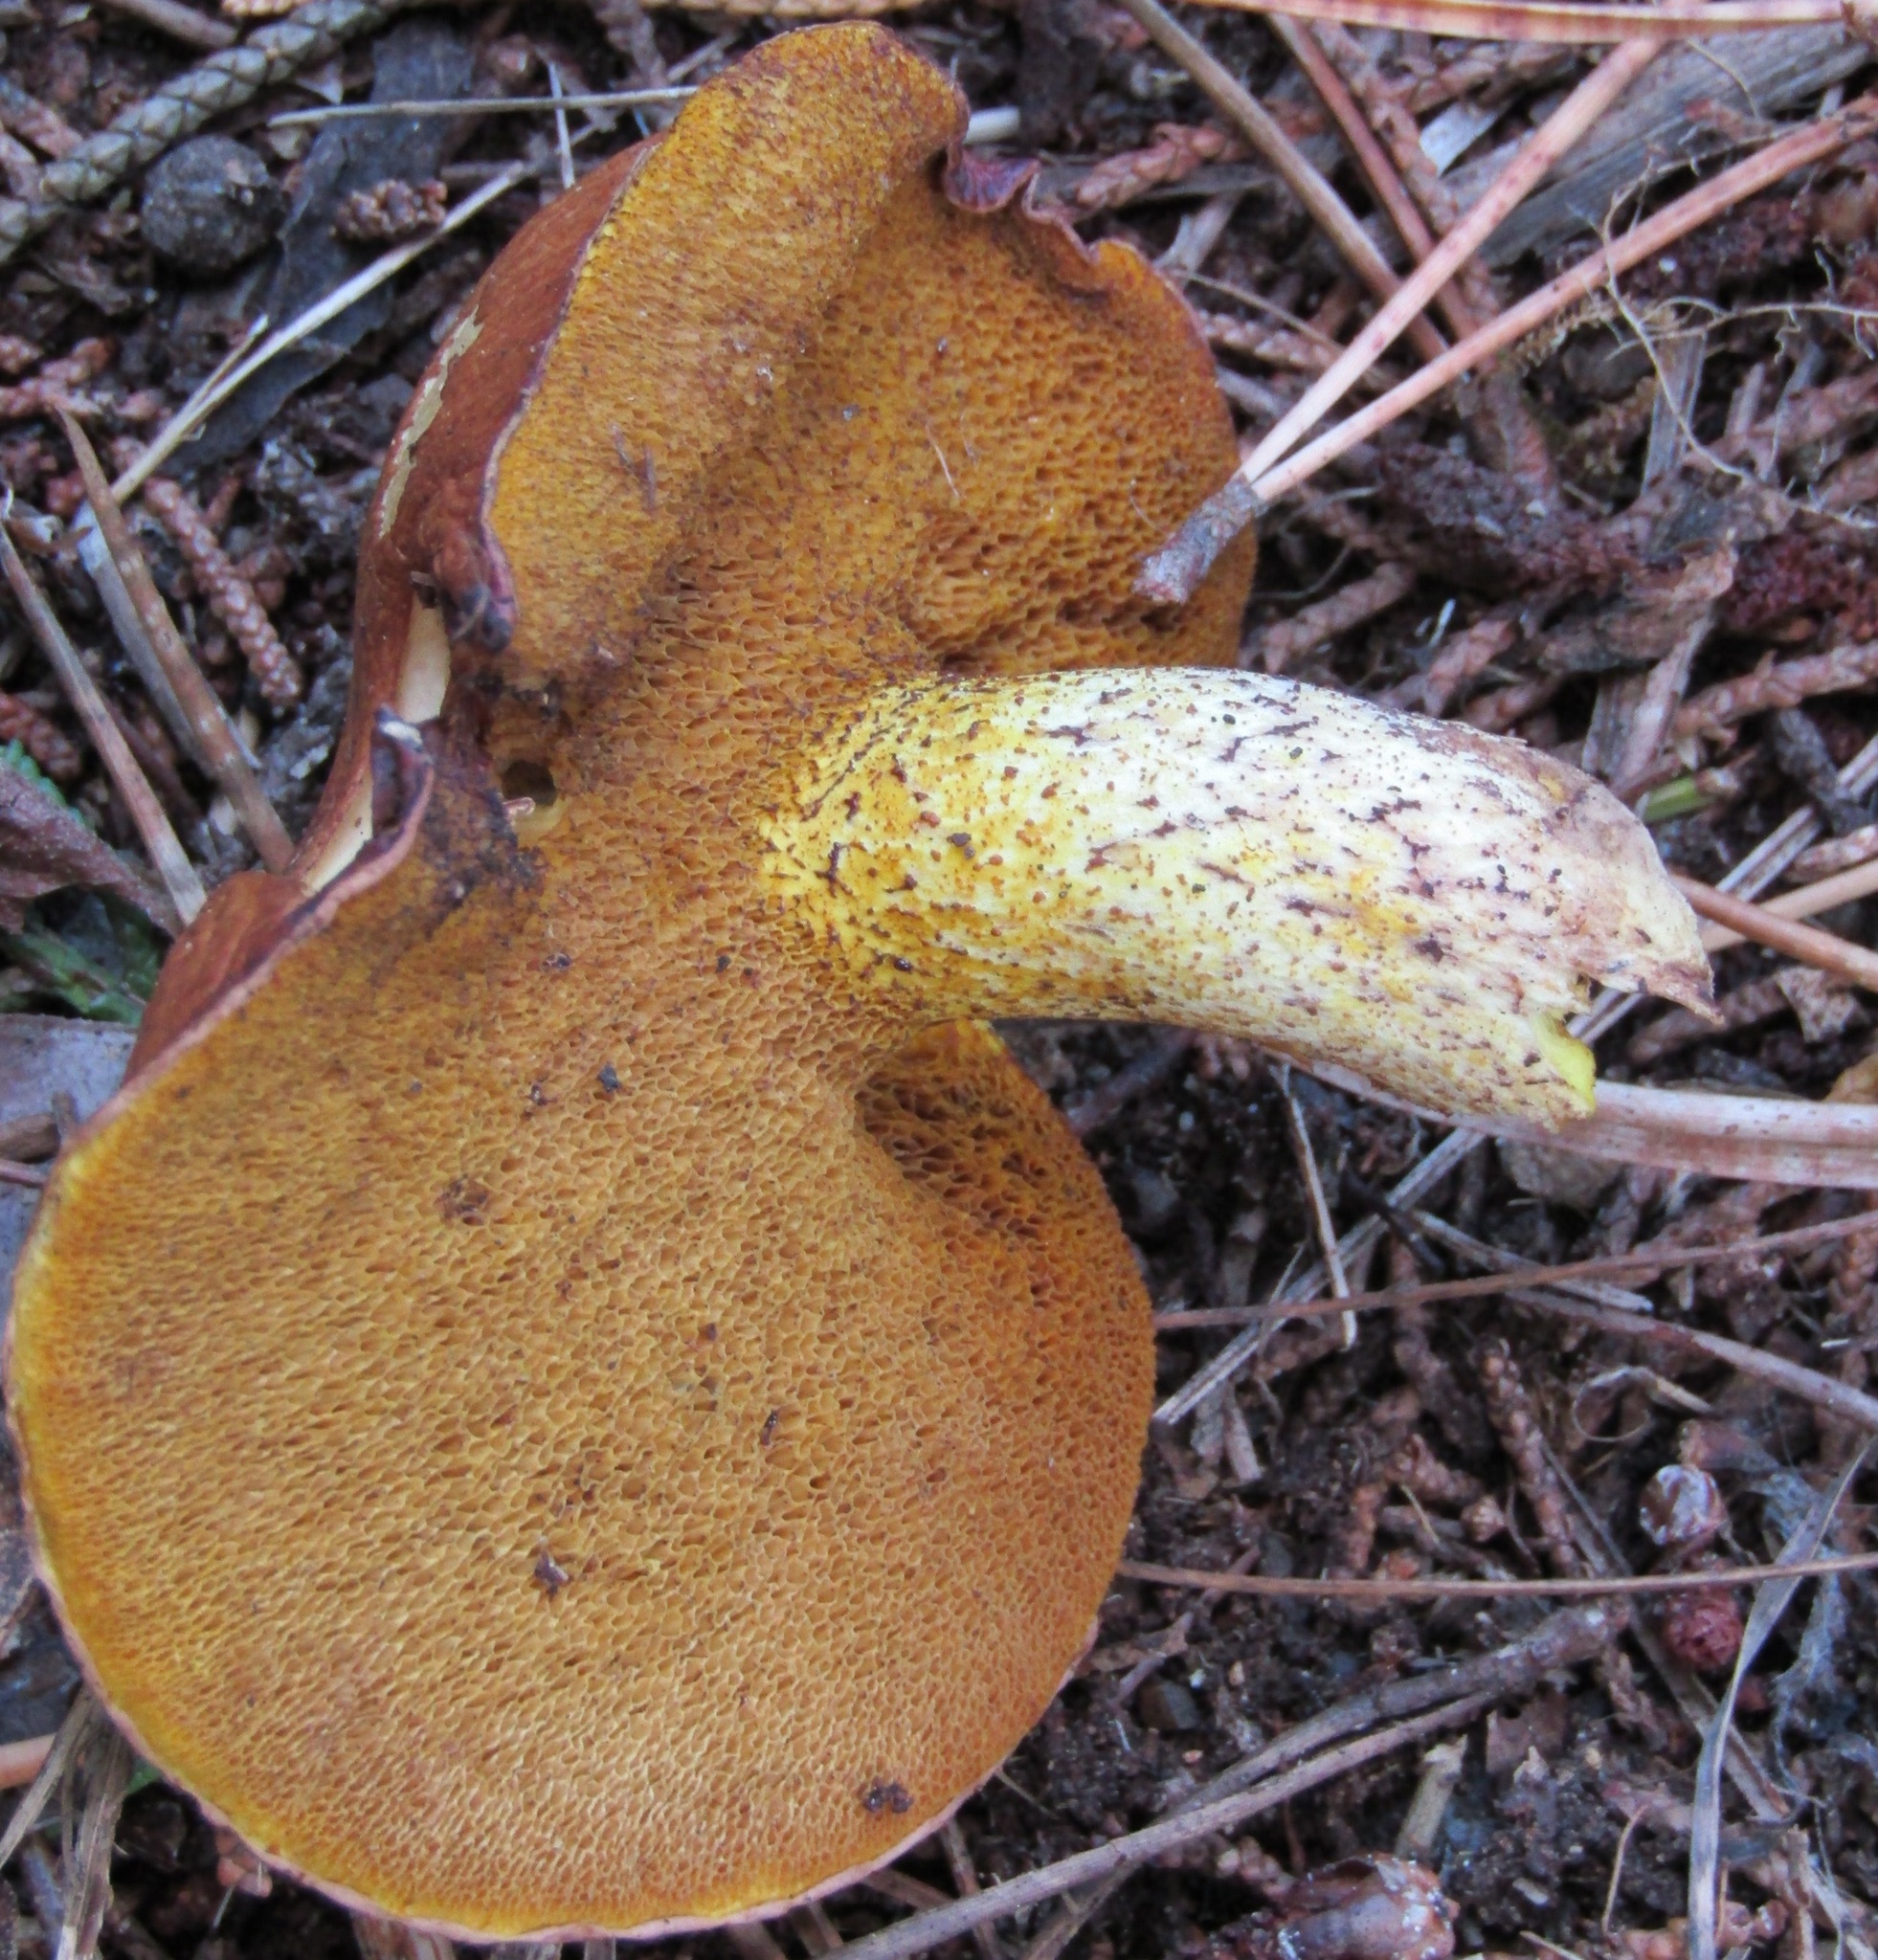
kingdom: Fungi
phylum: Basidiomycota
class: Agaricomycetes
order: Boletales
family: Suillaceae
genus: Suillus
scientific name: Suillus granulatus
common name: Weeping bolete
